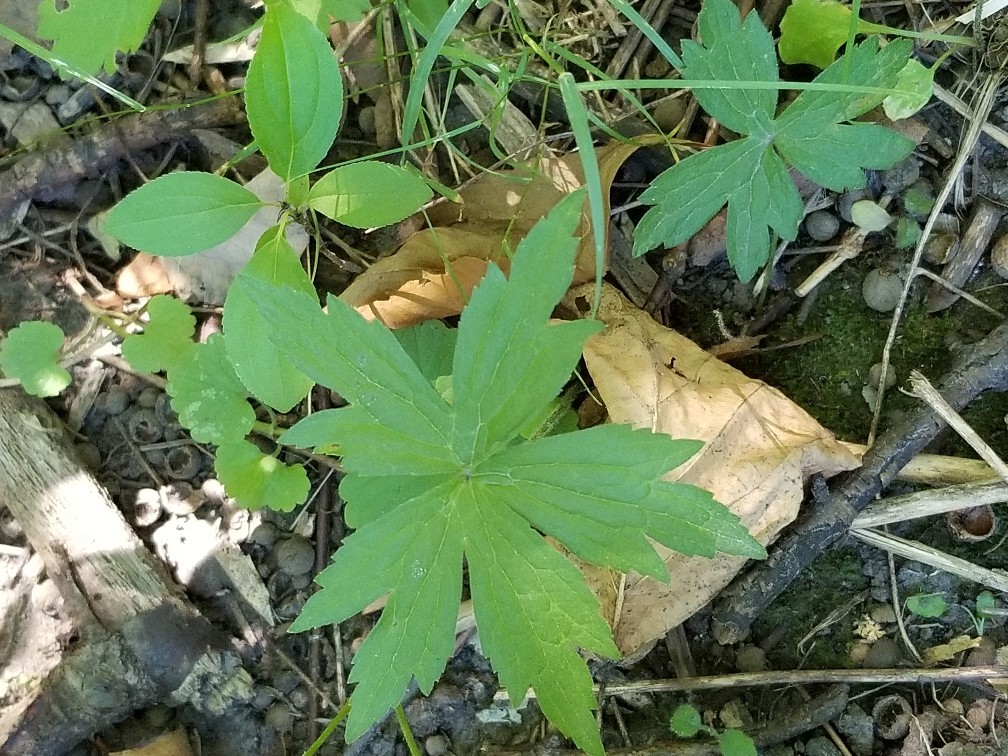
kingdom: Plantae
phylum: Tracheophyta
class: Magnoliopsida
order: Ranunculales
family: Ranunculaceae
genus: Anemonastrum
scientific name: Anemonastrum canadense
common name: Canada anemone
